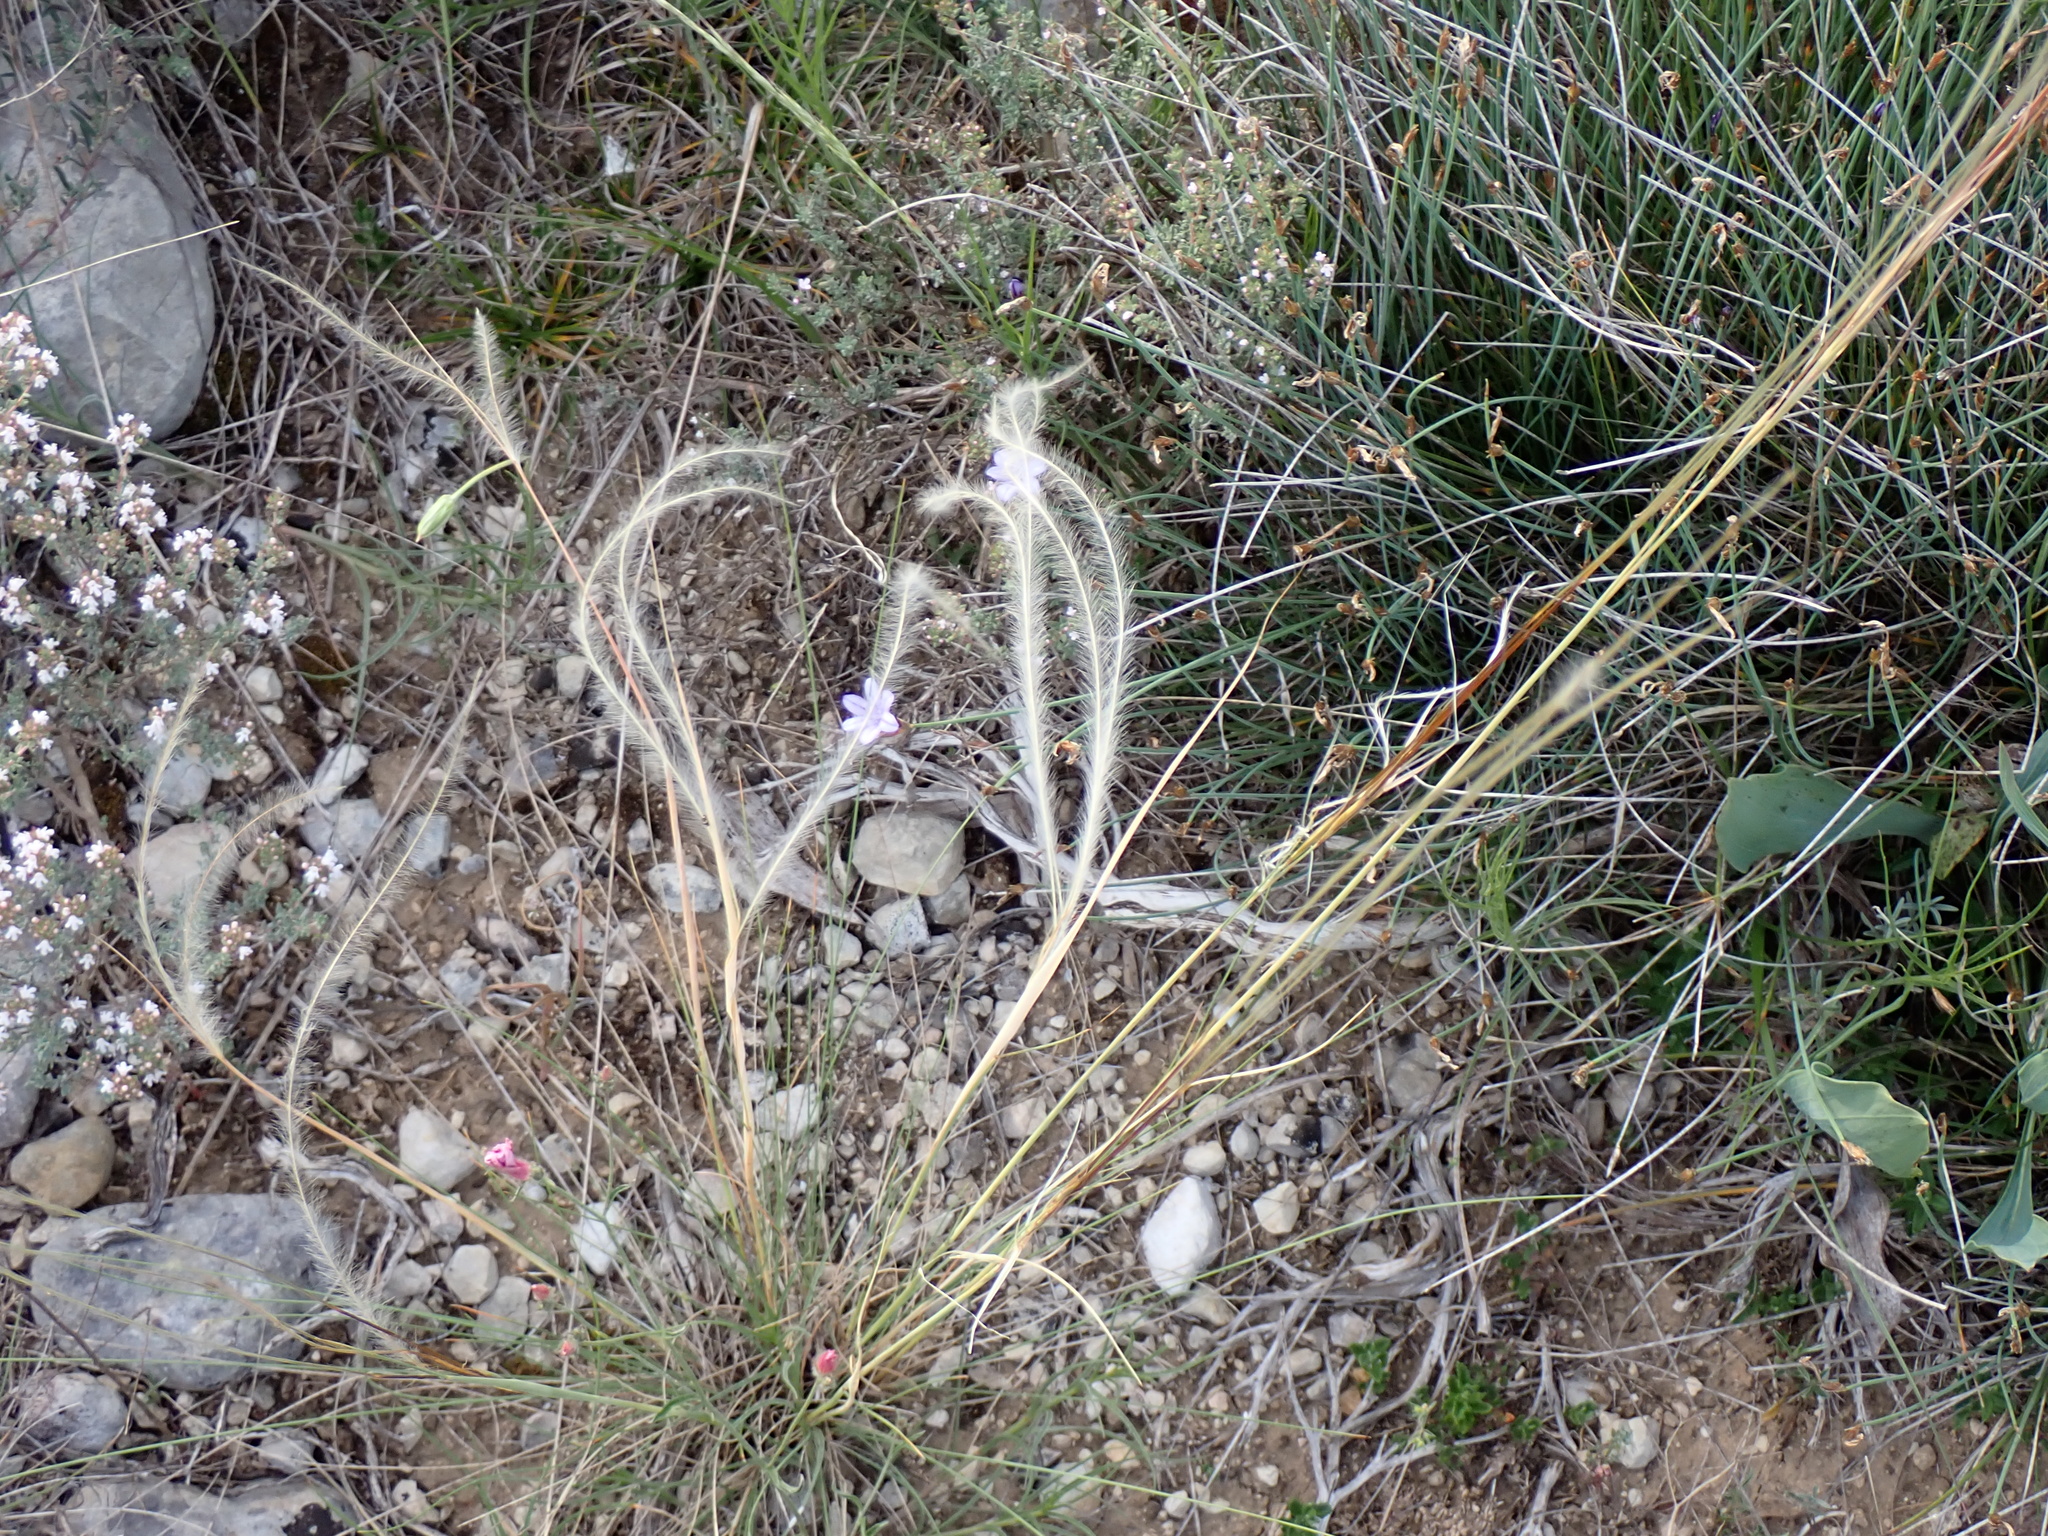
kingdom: Plantae
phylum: Tracheophyta
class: Liliopsida
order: Poales
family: Poaceae
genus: Stipa
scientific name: Stipa pennata
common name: European feather grass
